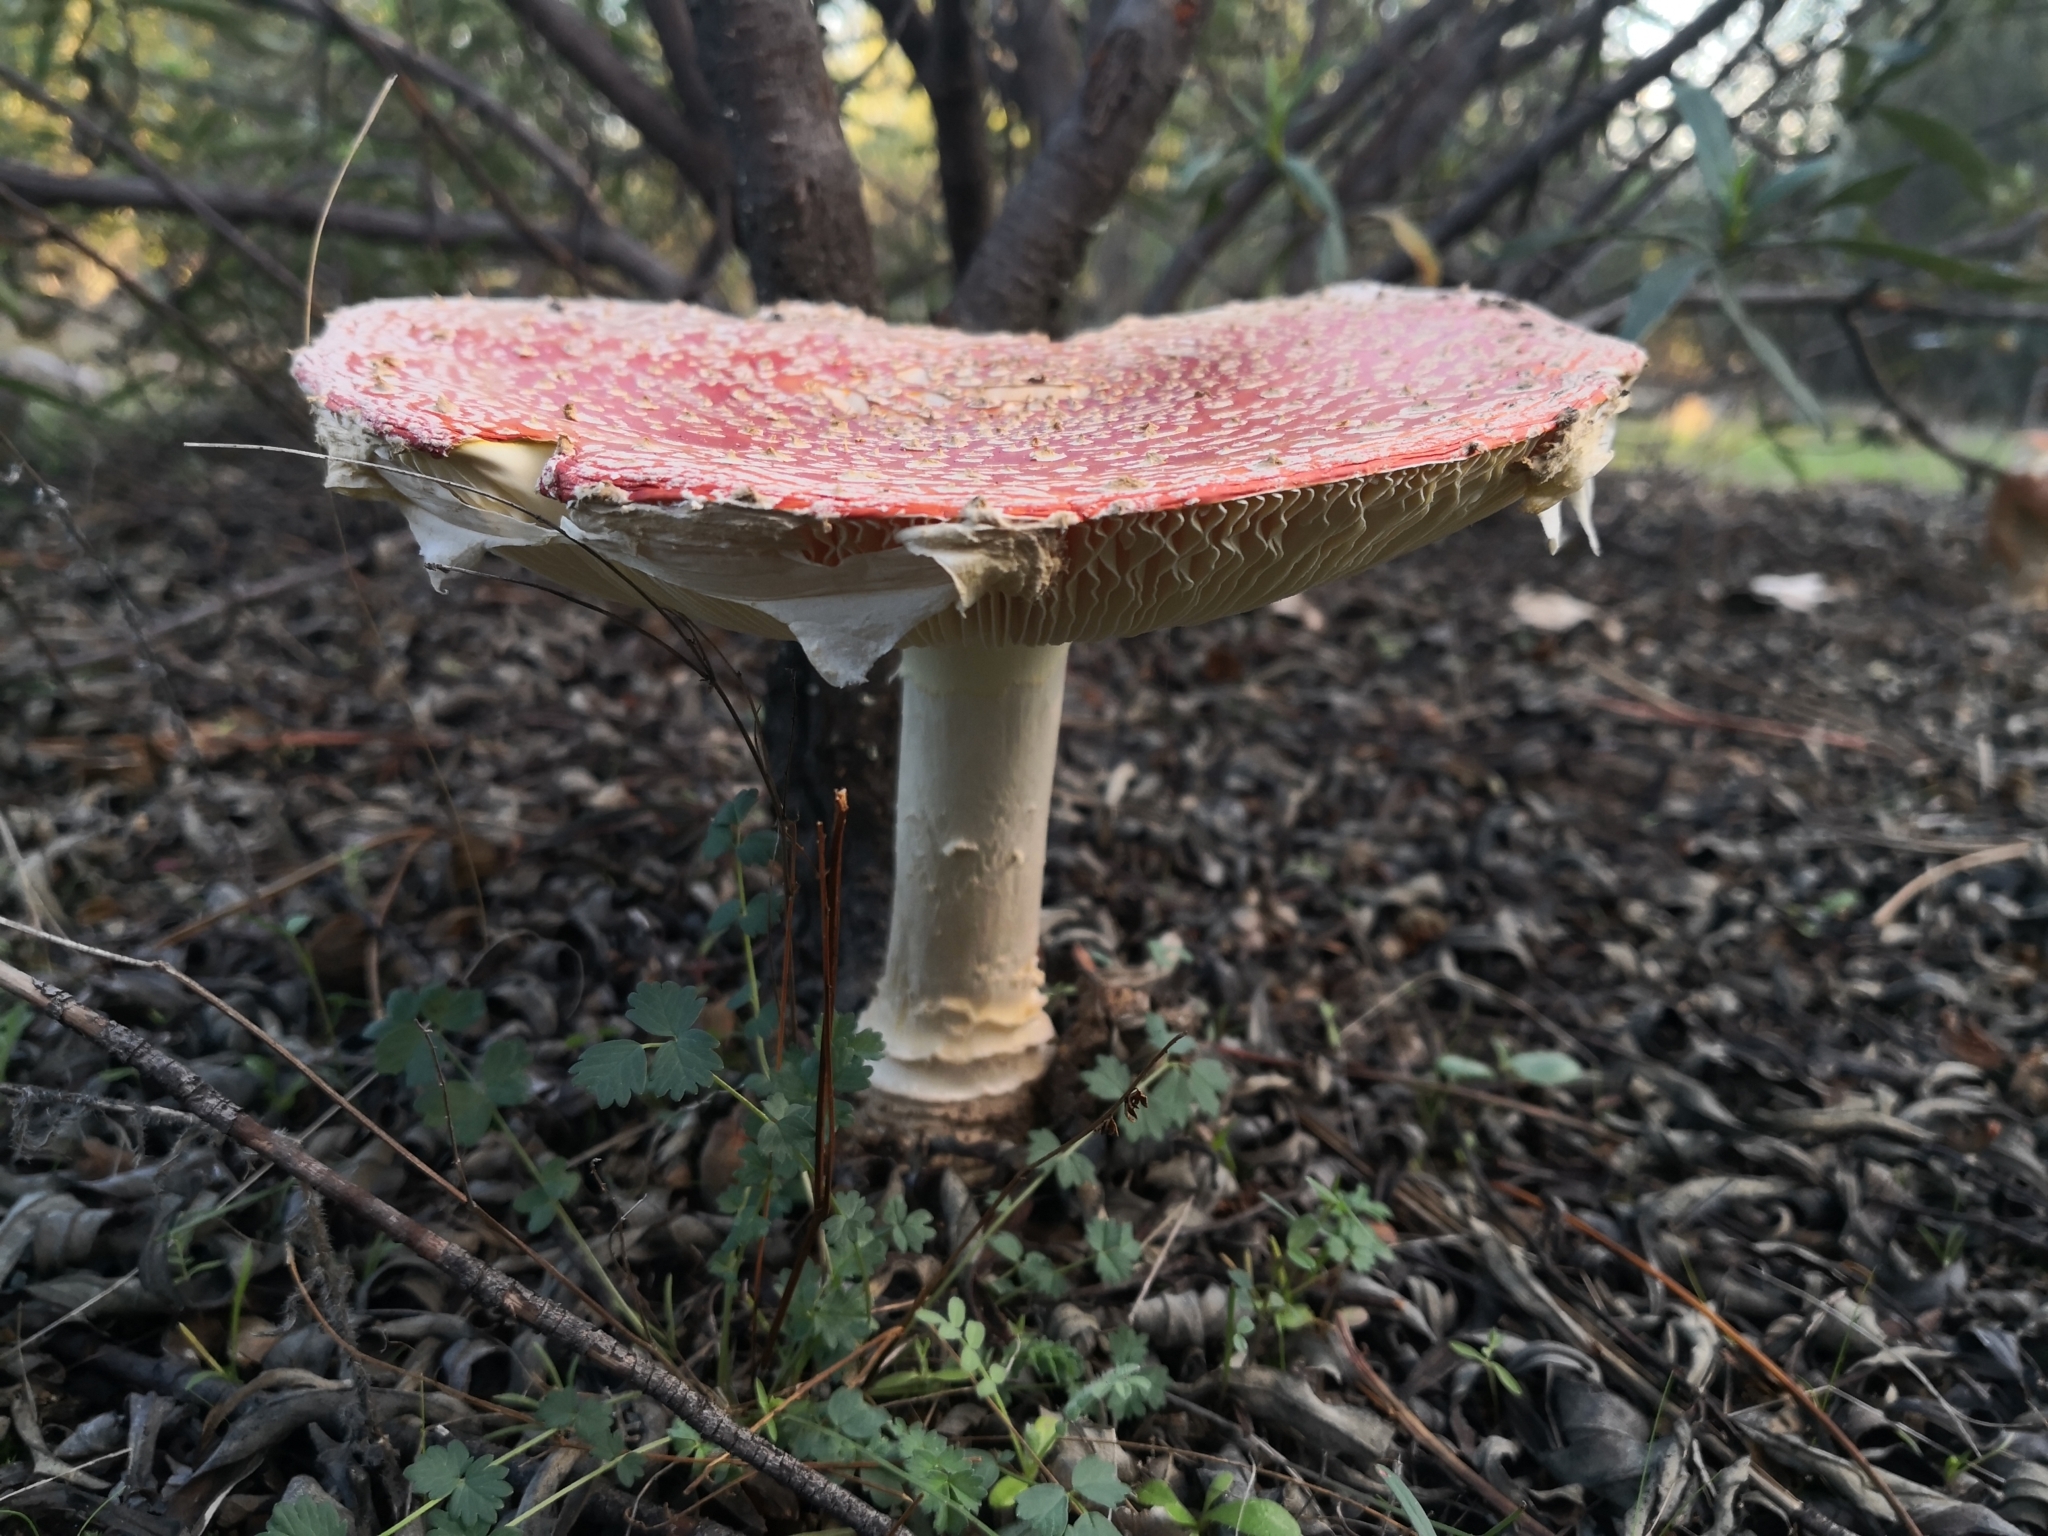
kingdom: Fungi
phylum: Basidiomycota
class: Agaricomycetes
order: Agaricales
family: Amanitaceae
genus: Amanita
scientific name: Amanita muscaria
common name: Fly agaric
